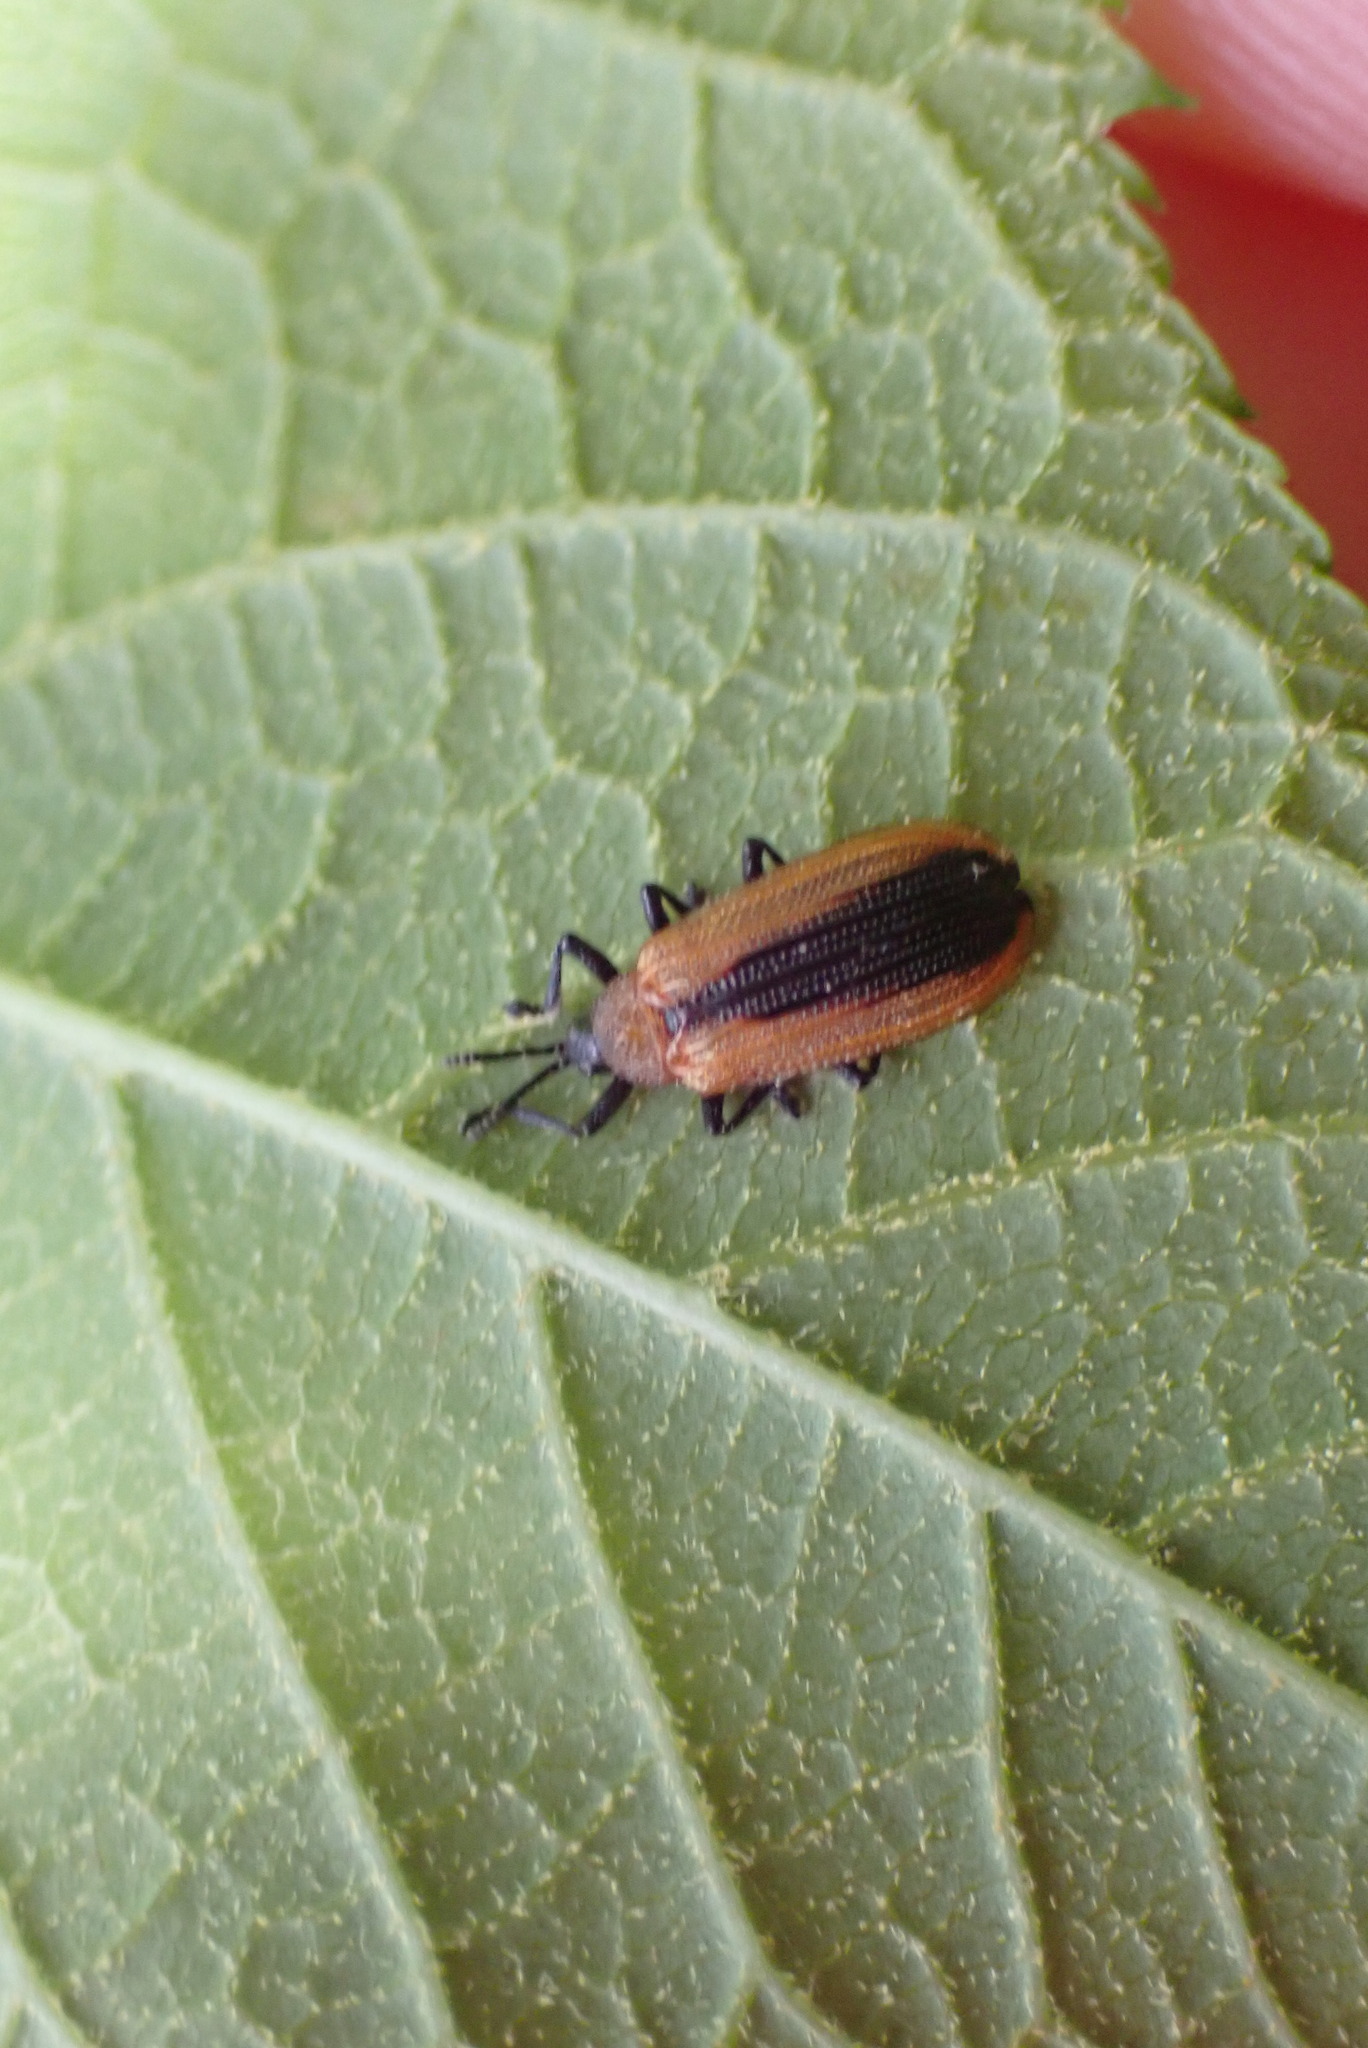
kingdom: Animalia
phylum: Arthropoda
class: Insecta
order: Coleoptera
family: Chrysomelidae
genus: Odontota
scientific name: Odontota dorsalis
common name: Locust leaf-miner beetle
